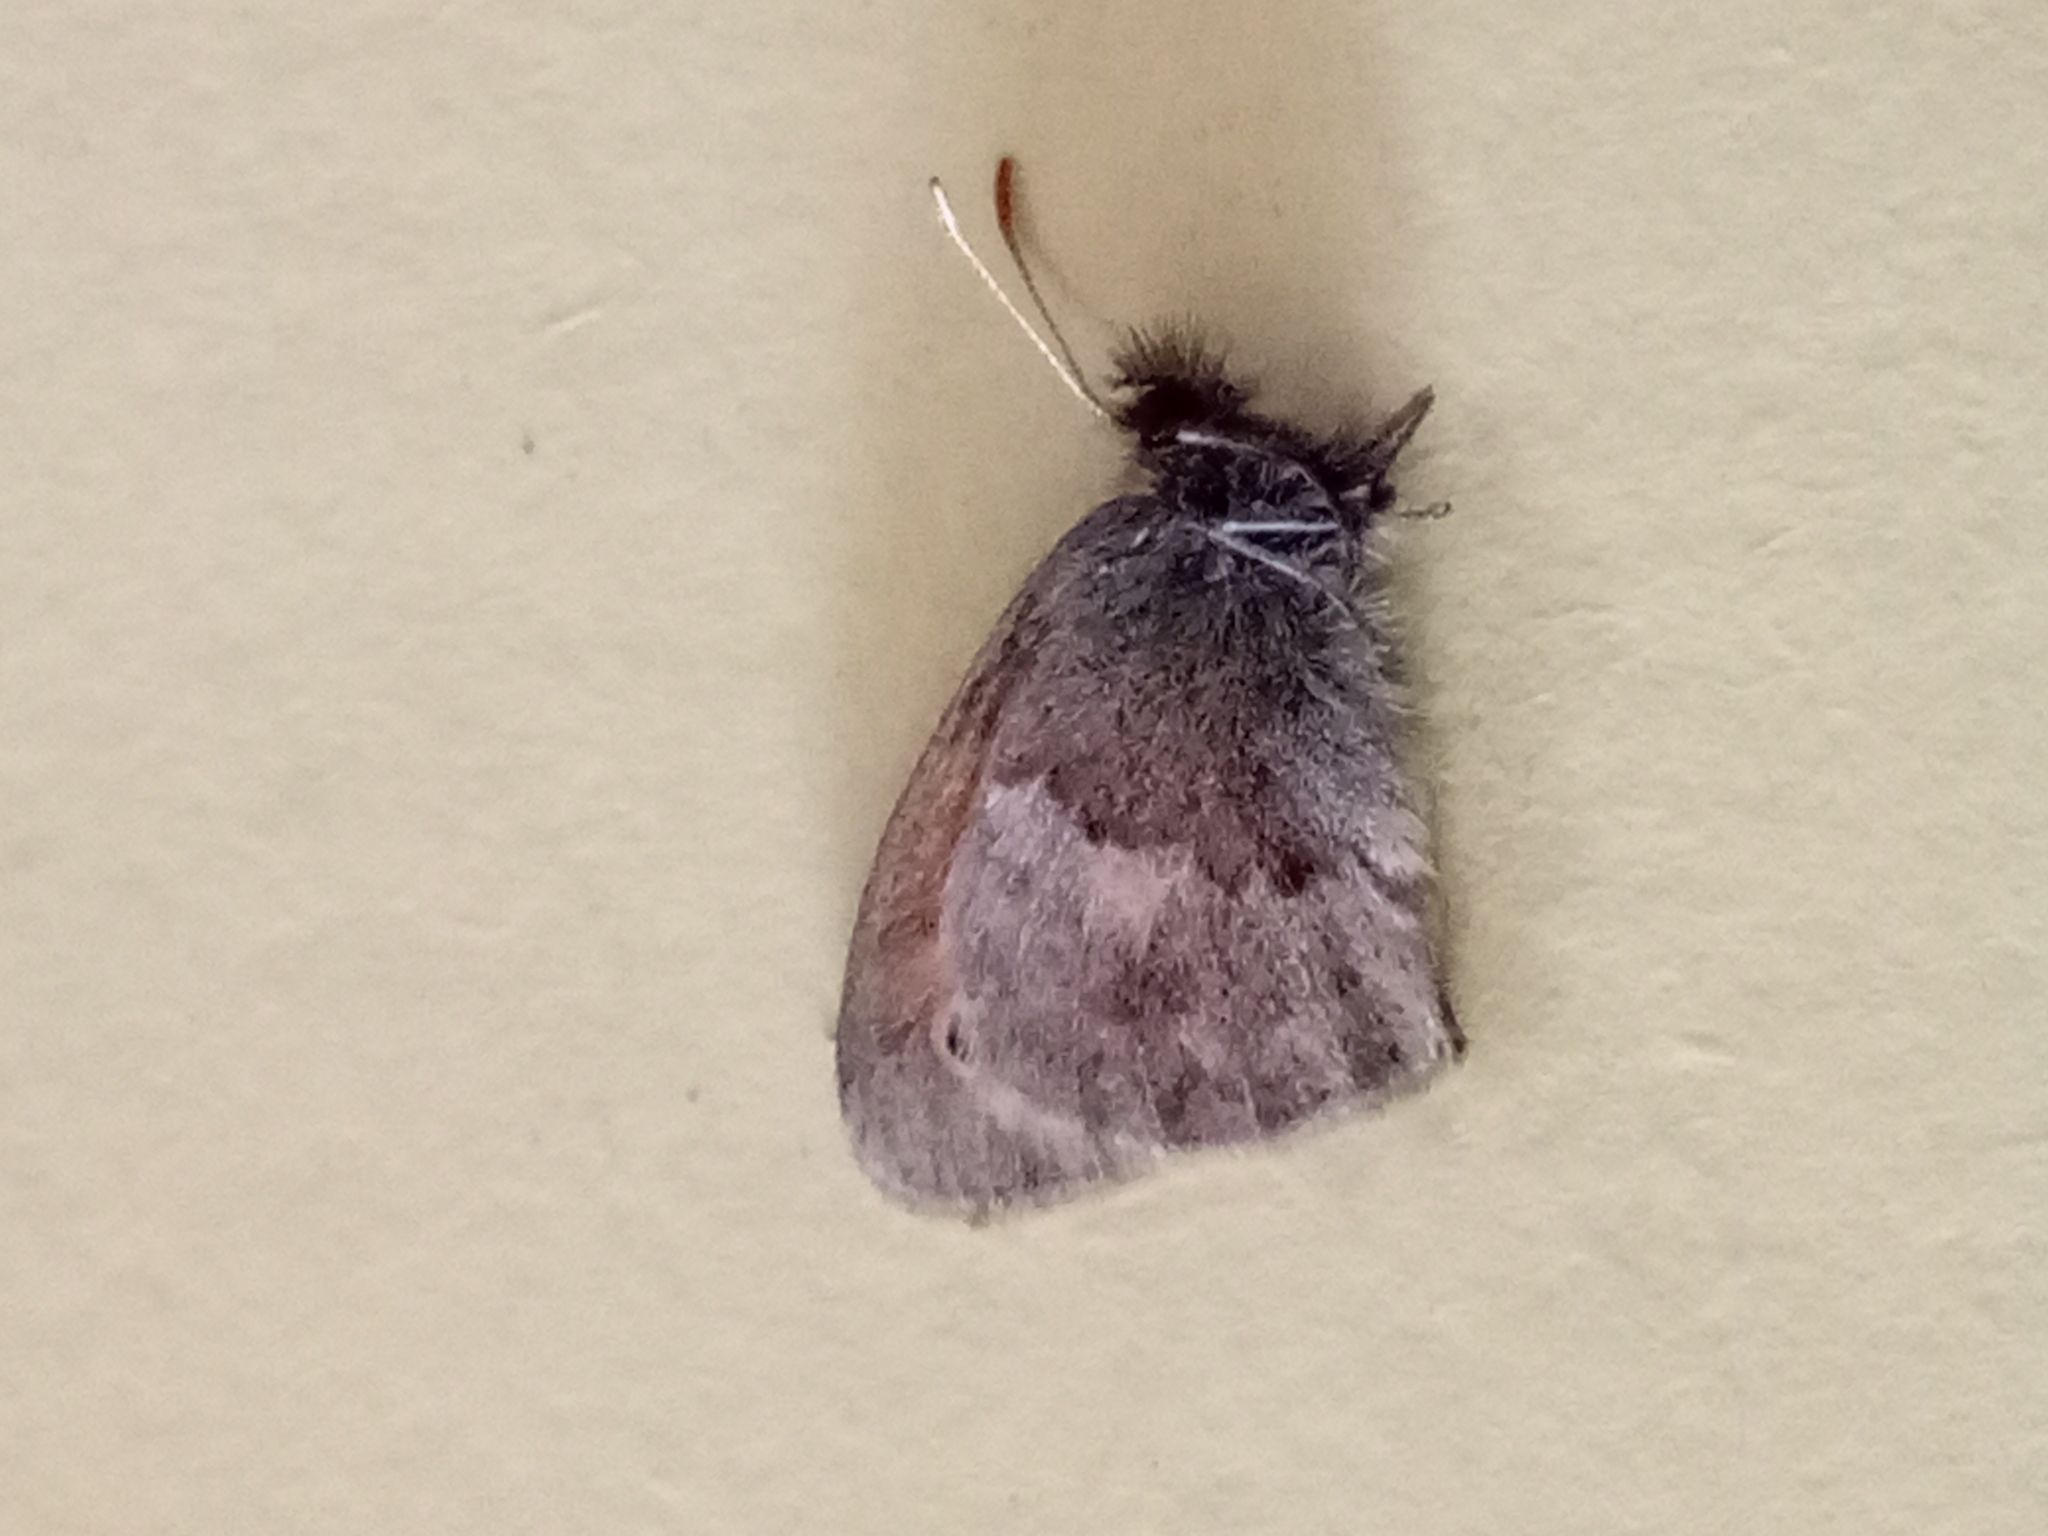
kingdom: Animalia
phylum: Arthropoda
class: Insecta
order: Lepidoptera
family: Nymphalidae
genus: Coenonympha
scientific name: Coenonympha pamphilus
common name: Small heath
